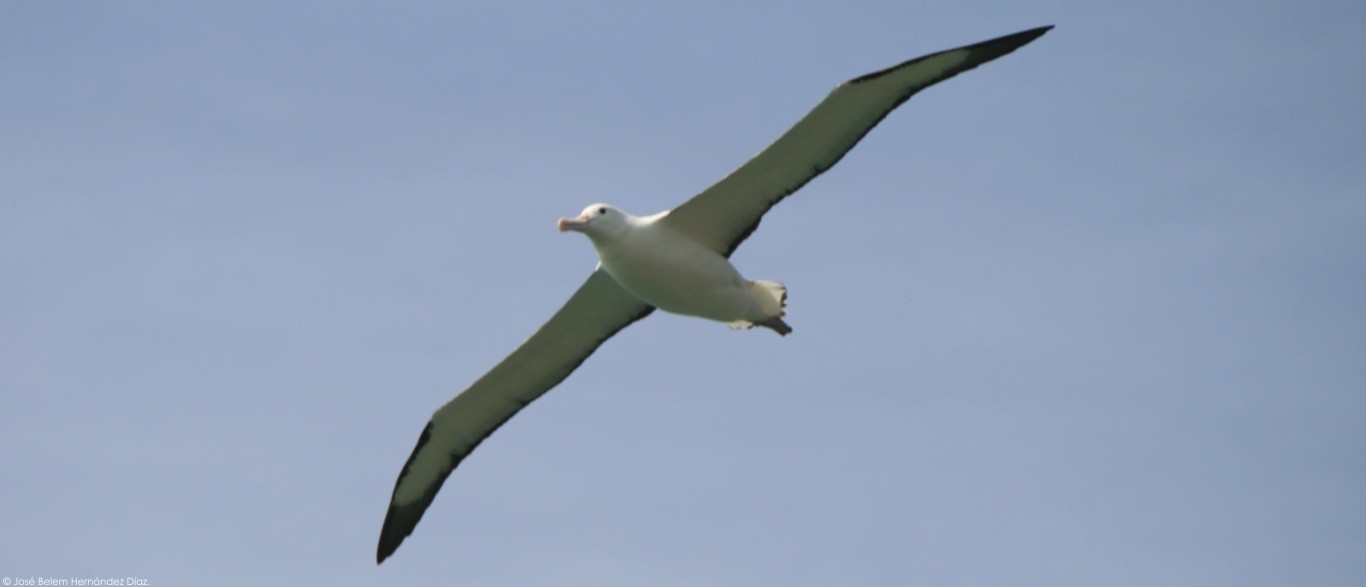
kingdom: Animalia
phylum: Chordata
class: Aves
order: Procellariiformes
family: Diomedeidae
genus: Diomedea
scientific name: Diomedea sanfordi
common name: Northern royal albatross
